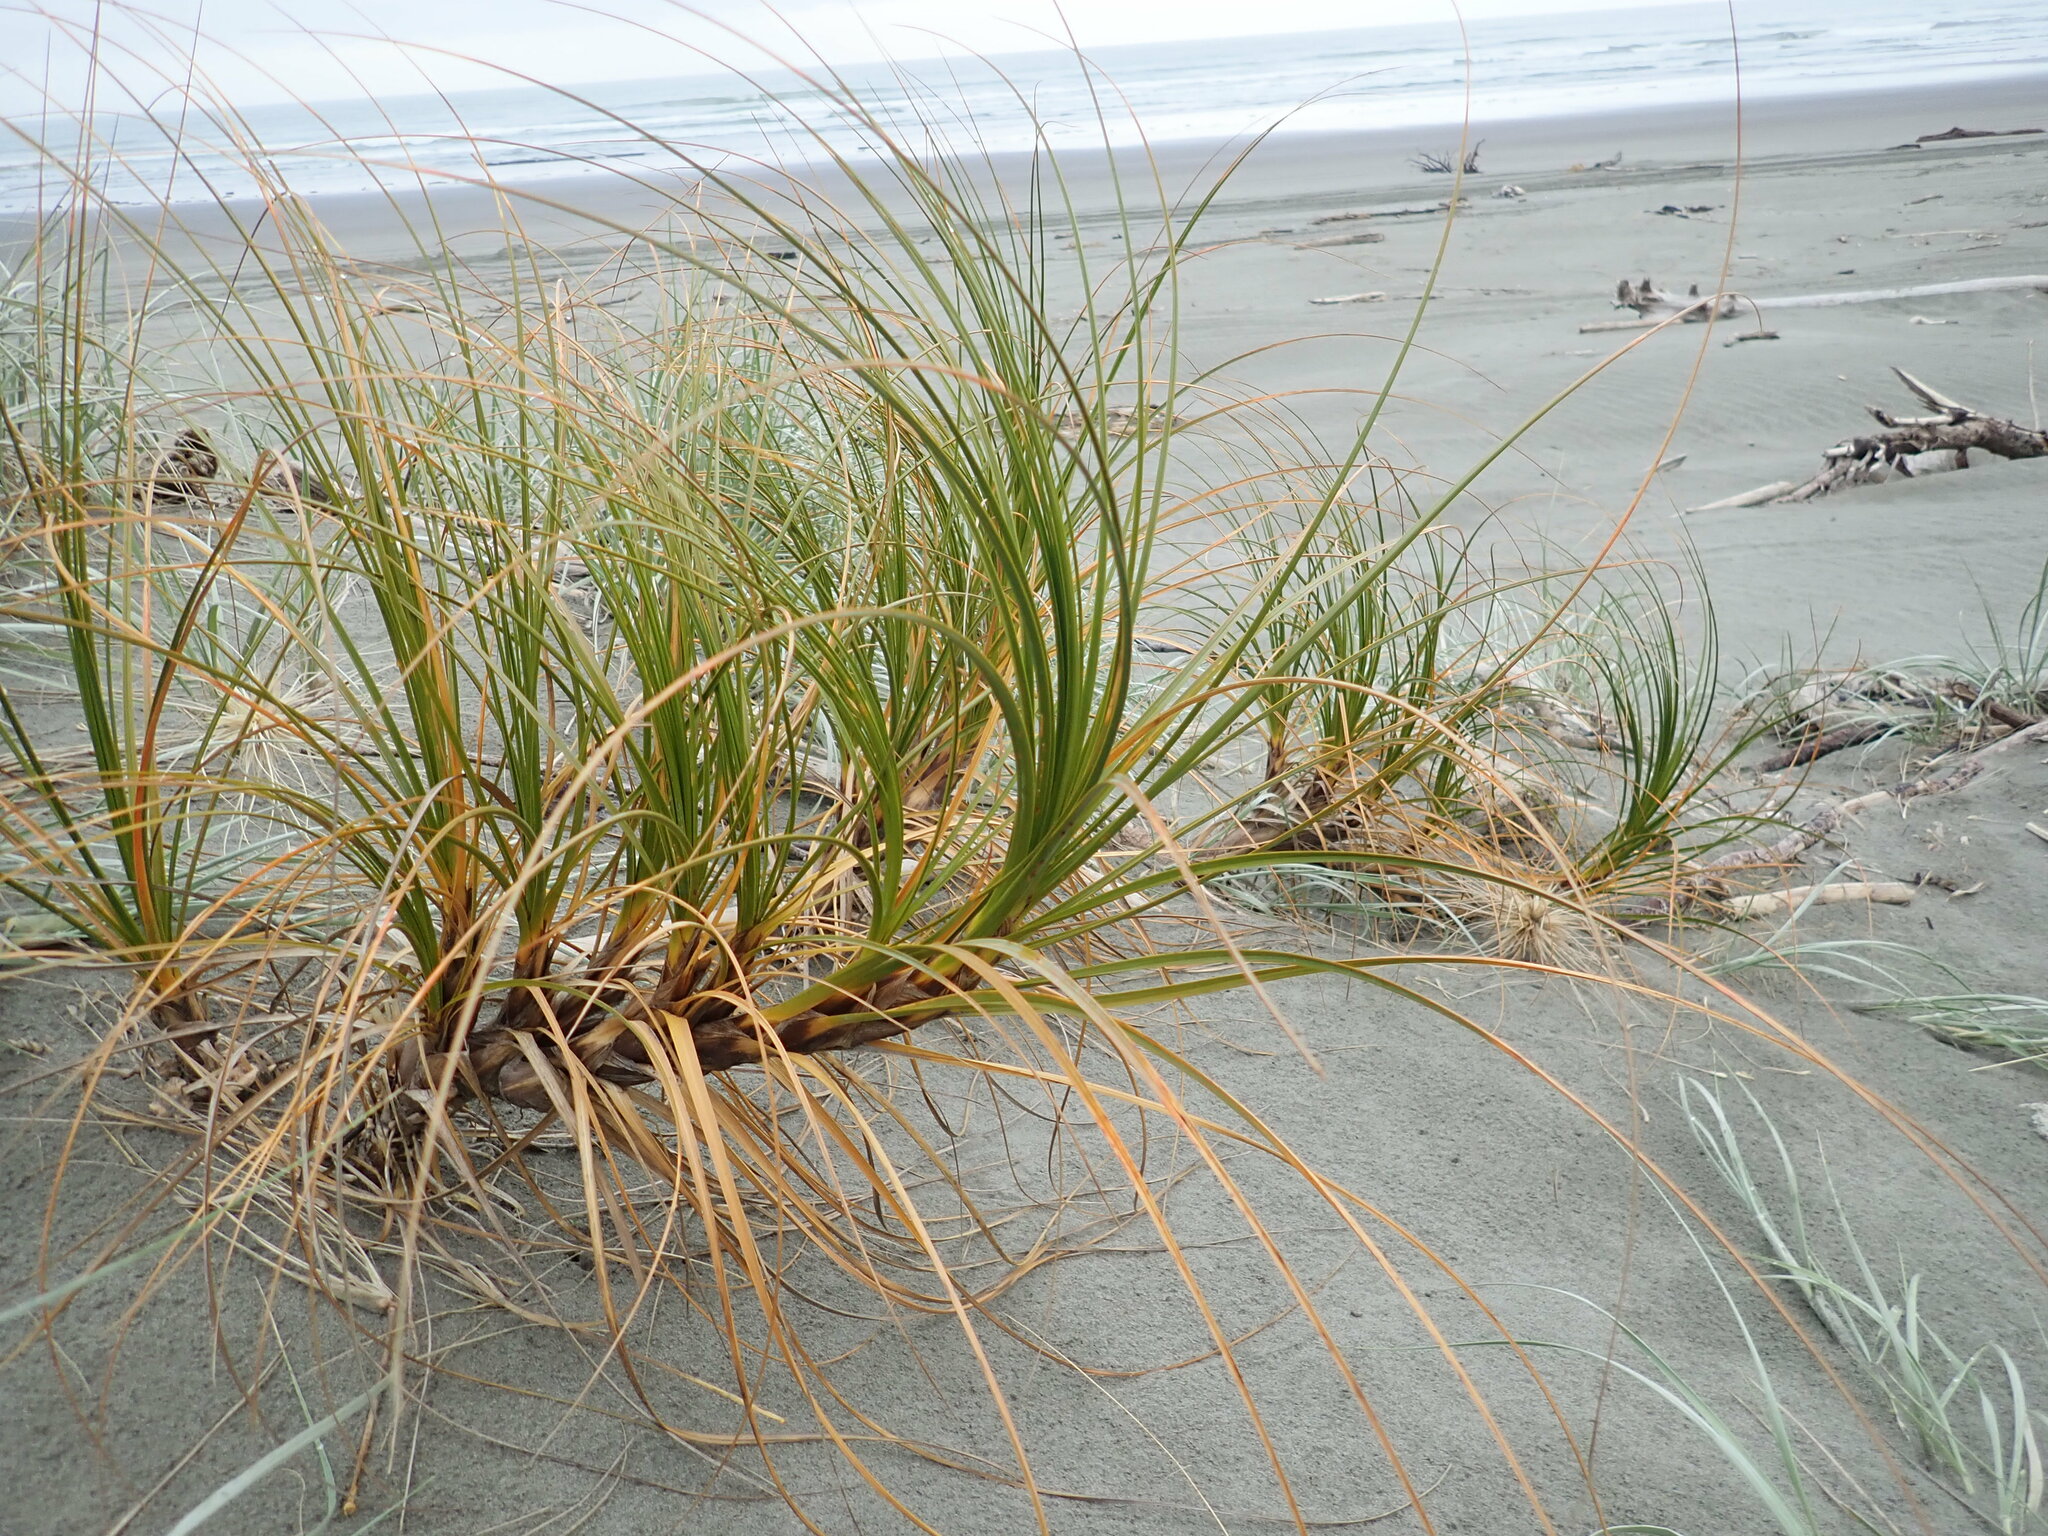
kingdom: Plantae
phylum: Tracheophyta
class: Liliopsida
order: Poales
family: Cyperaceae
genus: Ficinia
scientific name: Ficinia spiralis
